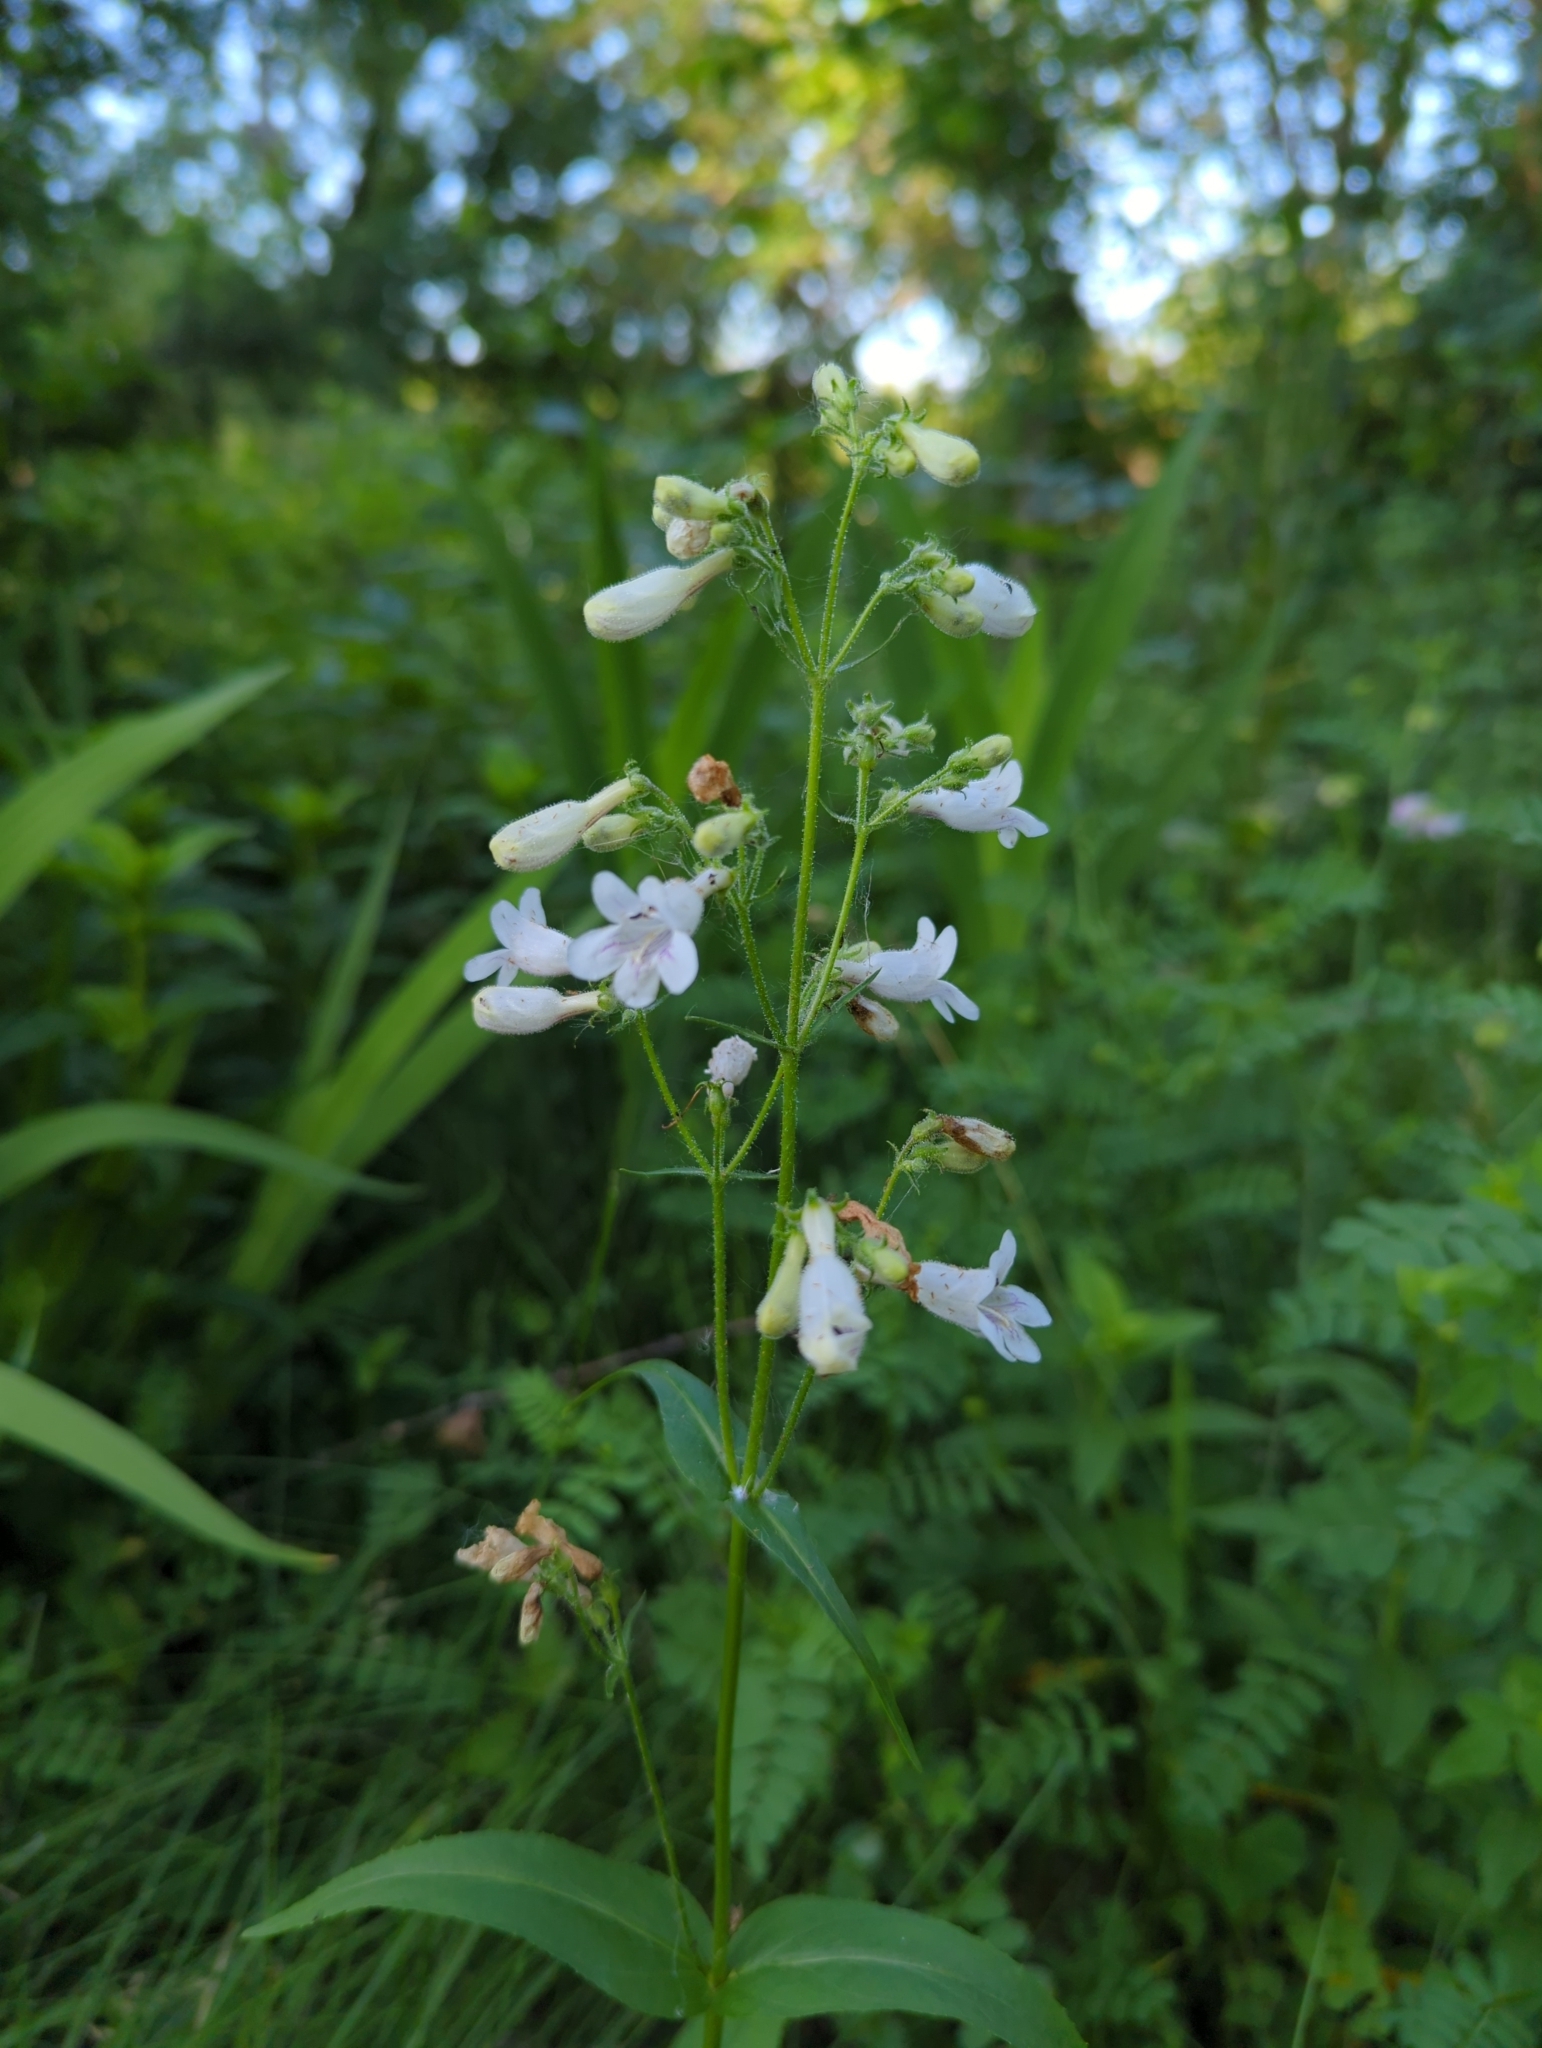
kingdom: Plantae
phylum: Tracheophyta
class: Magnoliopsida
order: Lamiales
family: Plantaginaceae
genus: Penstemon
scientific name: Penstemon digitalis
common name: Foxglove beardtongue
